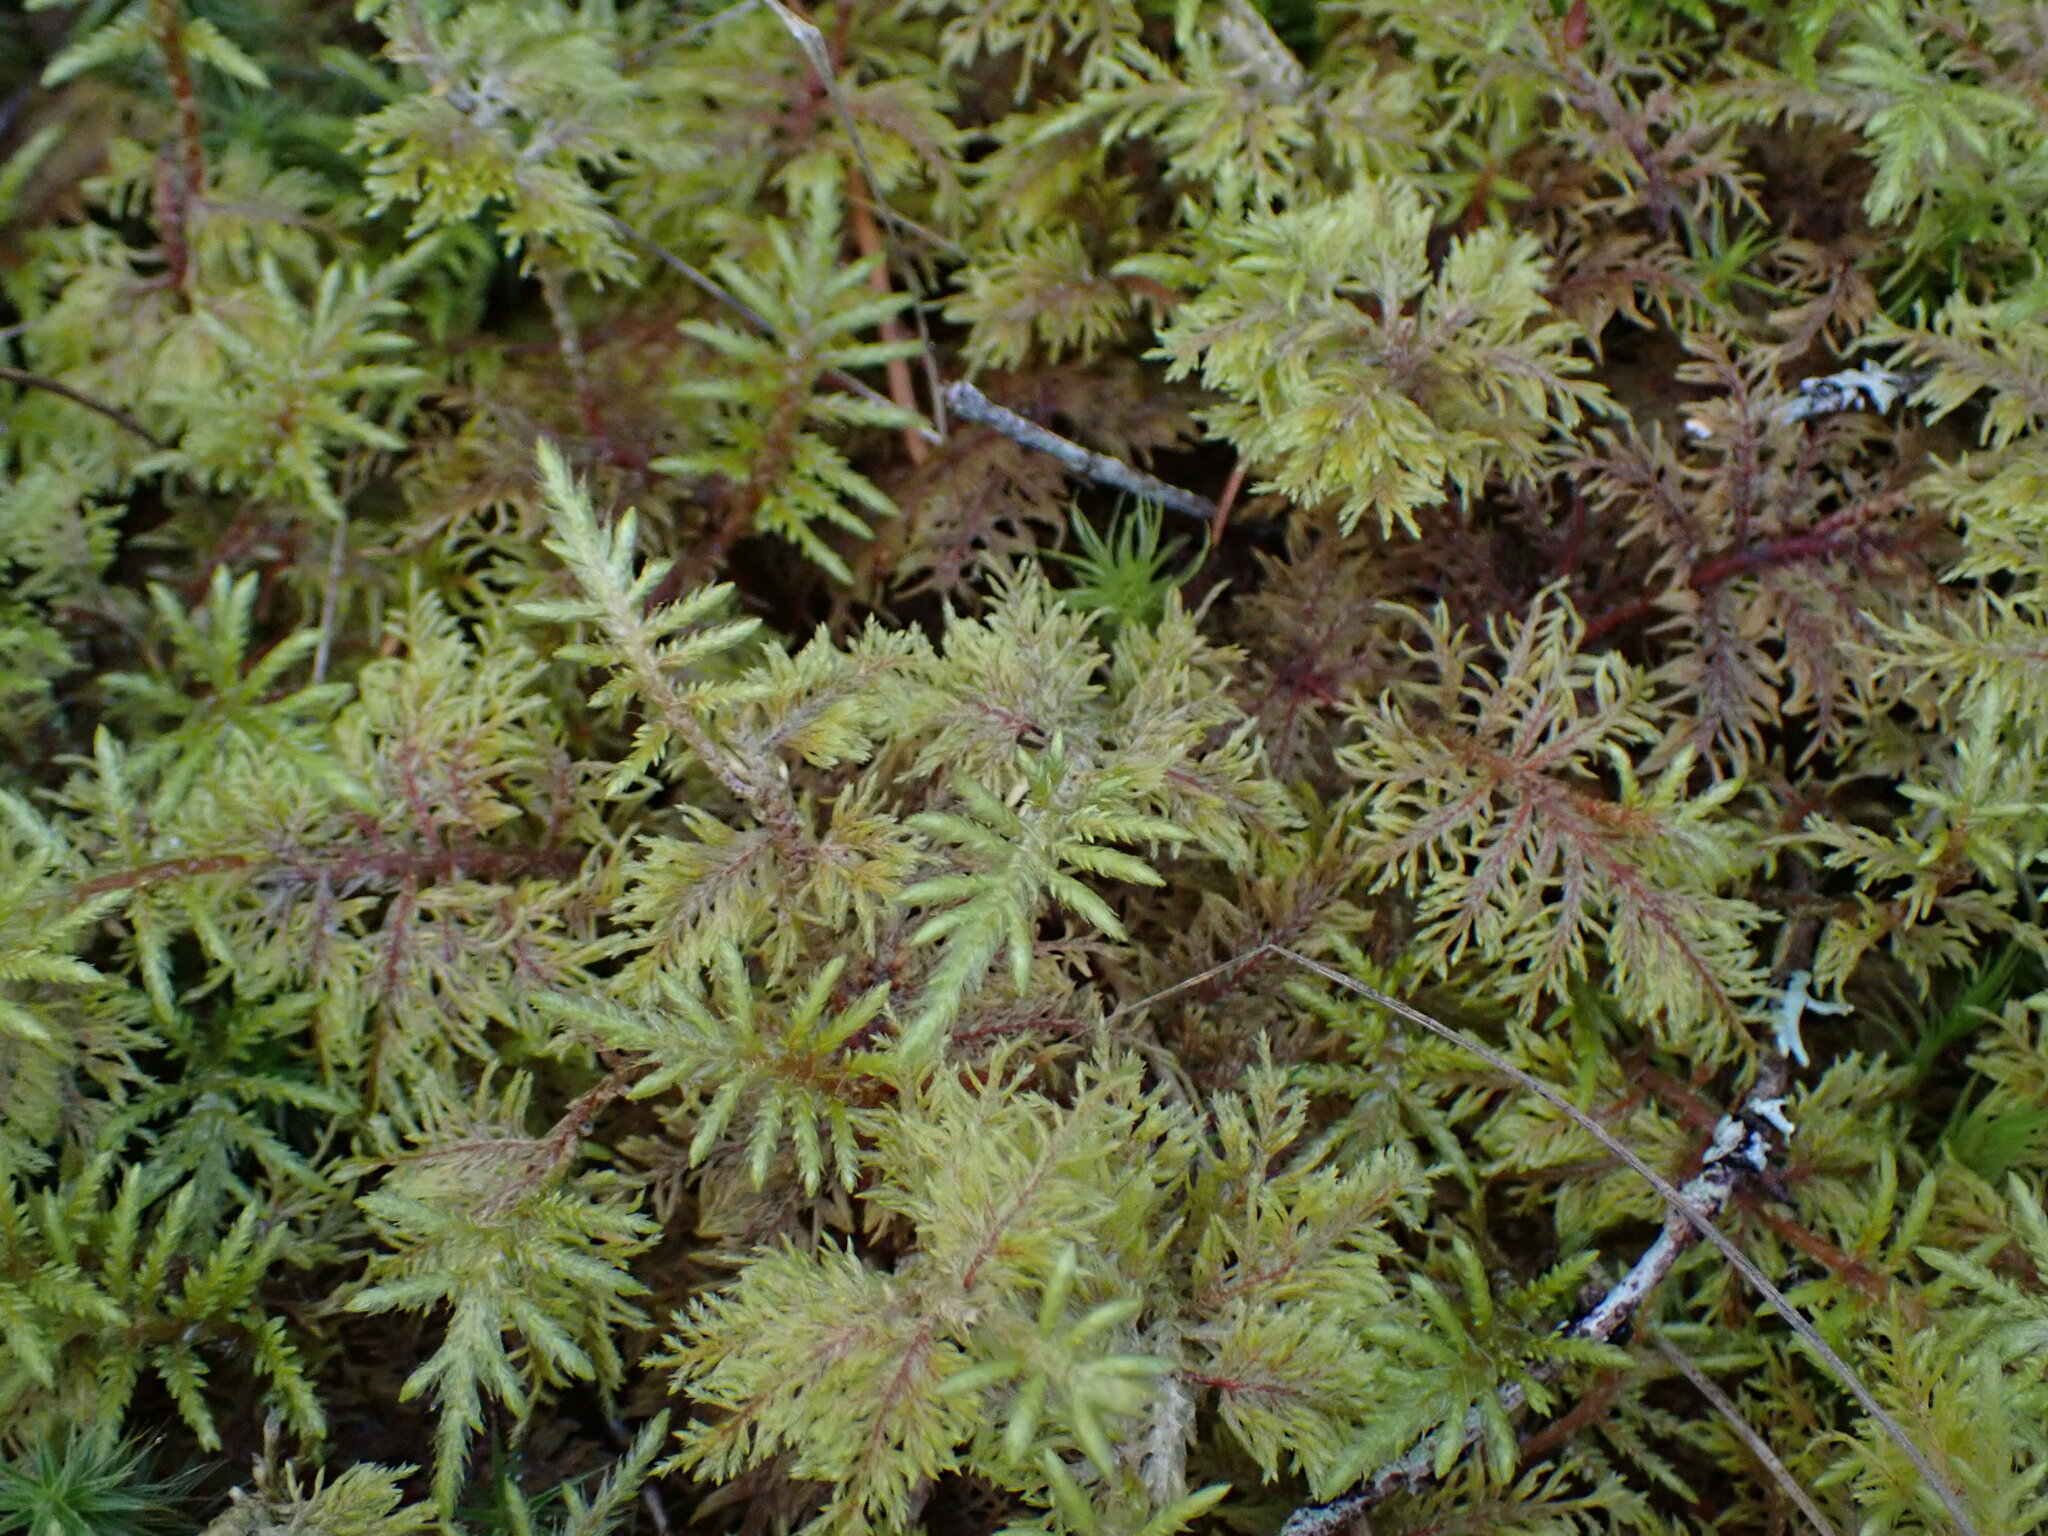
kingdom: Plantae
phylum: Bryophyta
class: Bryopsida
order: Hypnales
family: Hylocomiaceae
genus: Hylocomium
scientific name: Hylocomium splendens
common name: Stairstep moss
